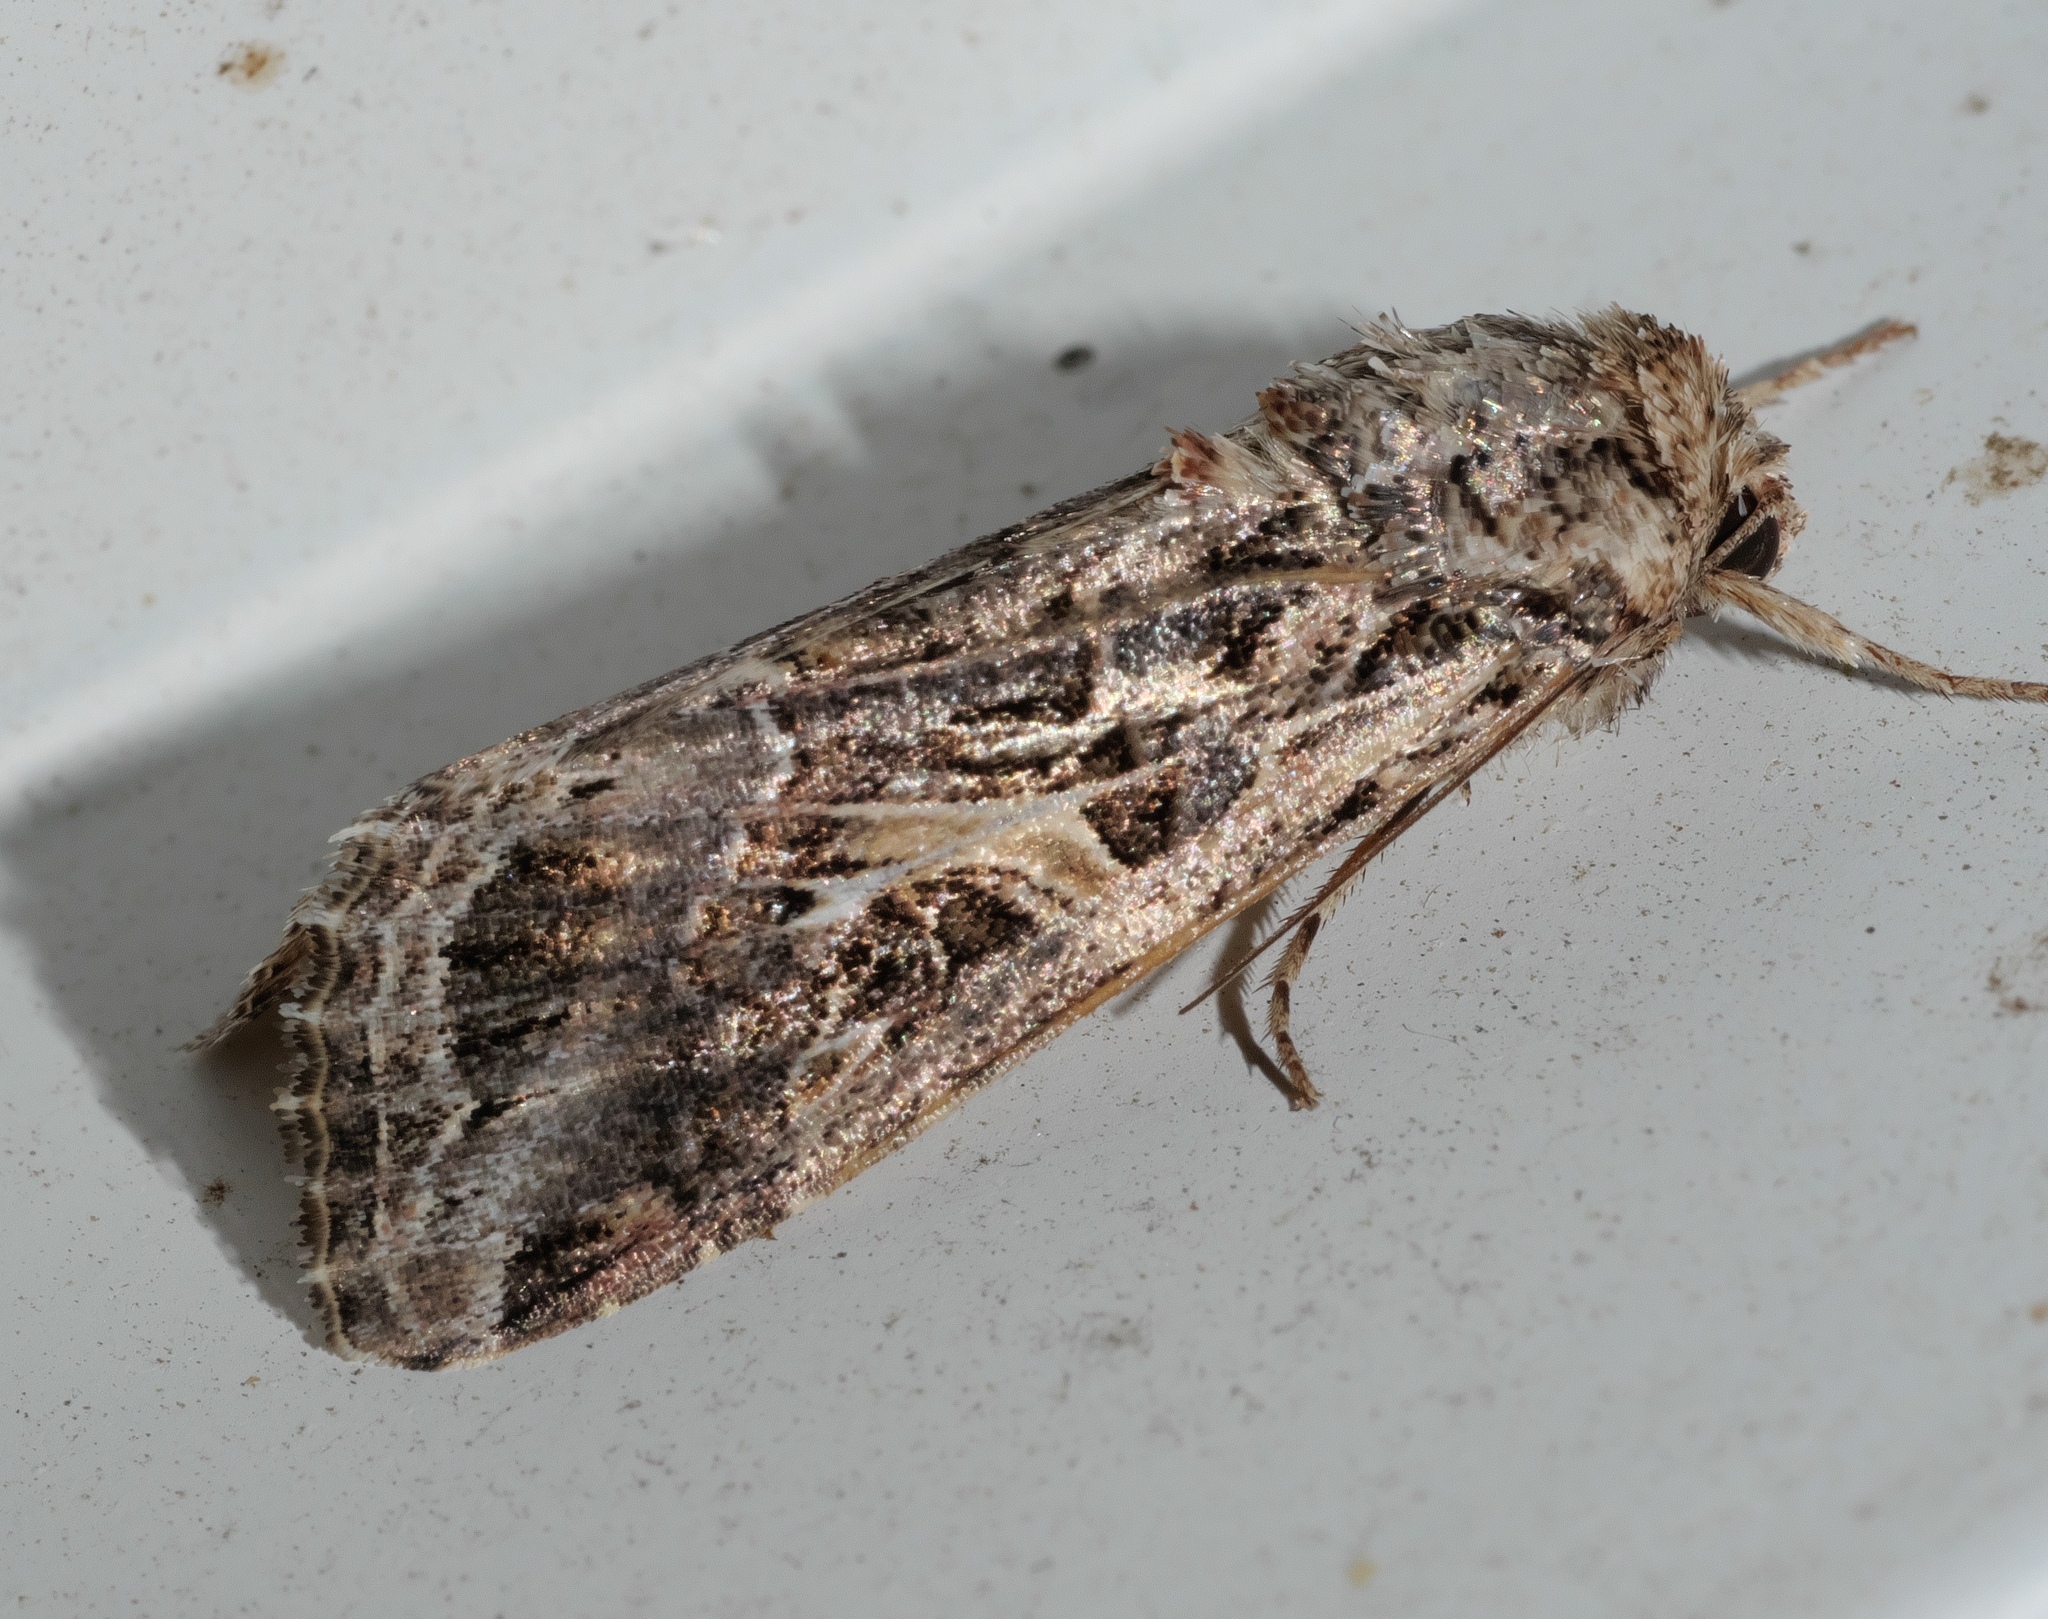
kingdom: Animalia
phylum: Arthropoda
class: Insecta
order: Lepidoptera
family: Noctuidae
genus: Spodoptera
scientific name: Spodoptera ornithogalli
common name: Yellow-striped armyworm
